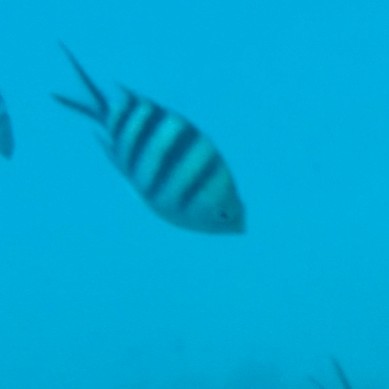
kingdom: Animalia
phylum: Chordata
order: Perciformes
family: Pomacentridae
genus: Abudefduf
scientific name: Abudefduf sexfasciatus
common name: Scissortail sergeant
